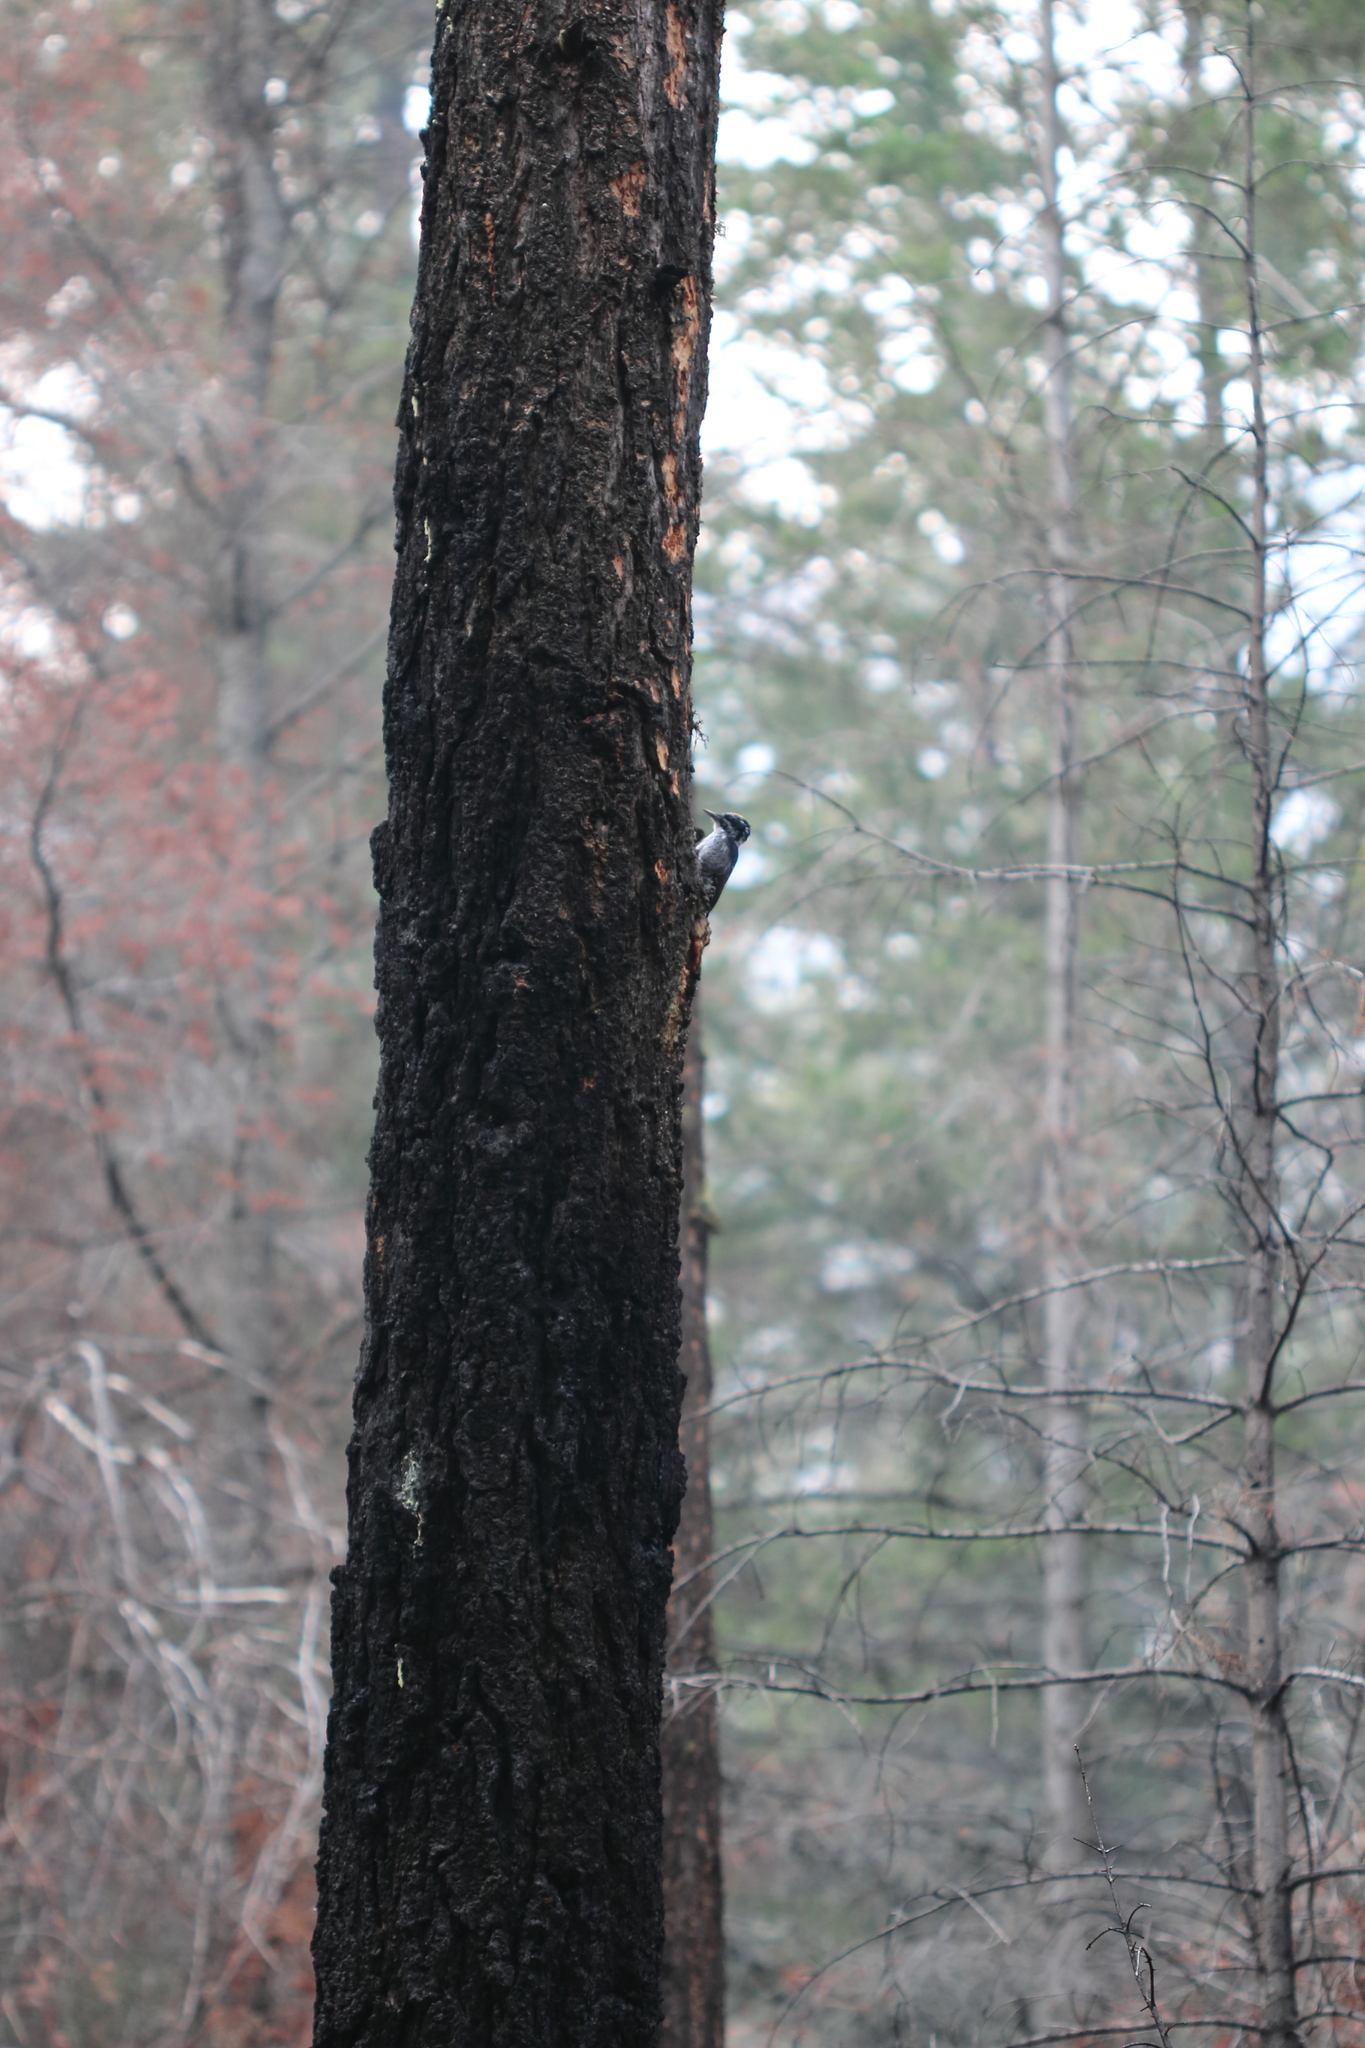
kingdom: Animalia
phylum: Chordata
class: Aves
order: Piciformes
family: Picidae
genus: Picoides
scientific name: Picoides dorsalis
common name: American three-toed woodpecker
